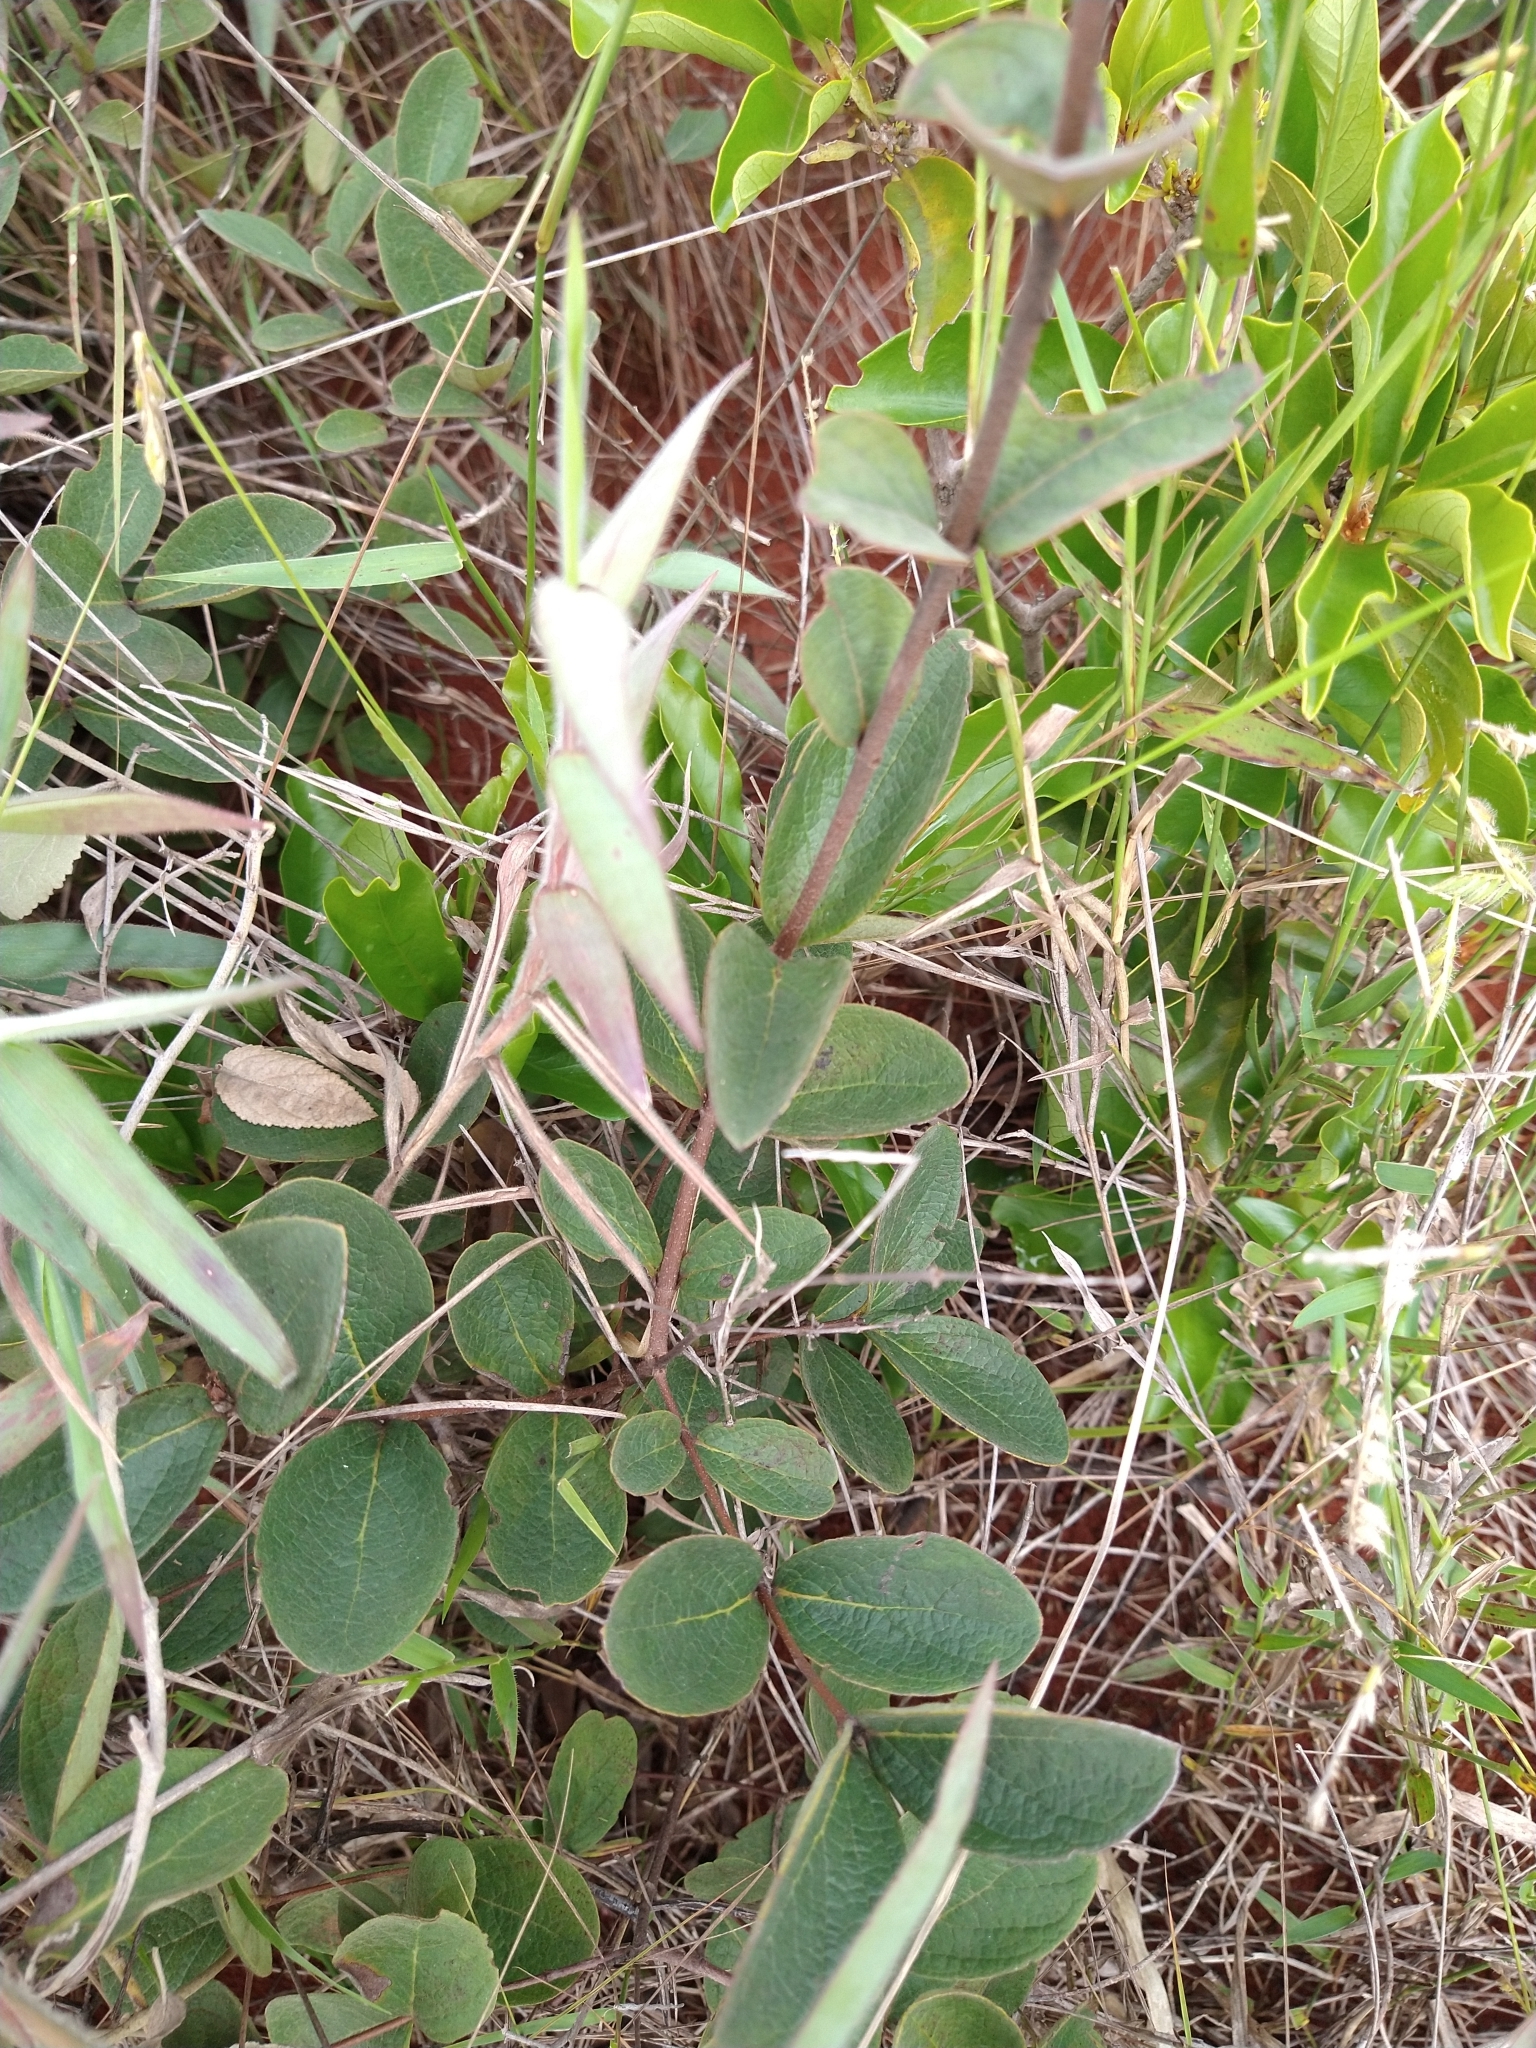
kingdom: Plantae
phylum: Tracheophyta
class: Magnoliopsida
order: Malpighiales
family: Malpighiaceae
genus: Heteropterys
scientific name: Heteropterys campestris
